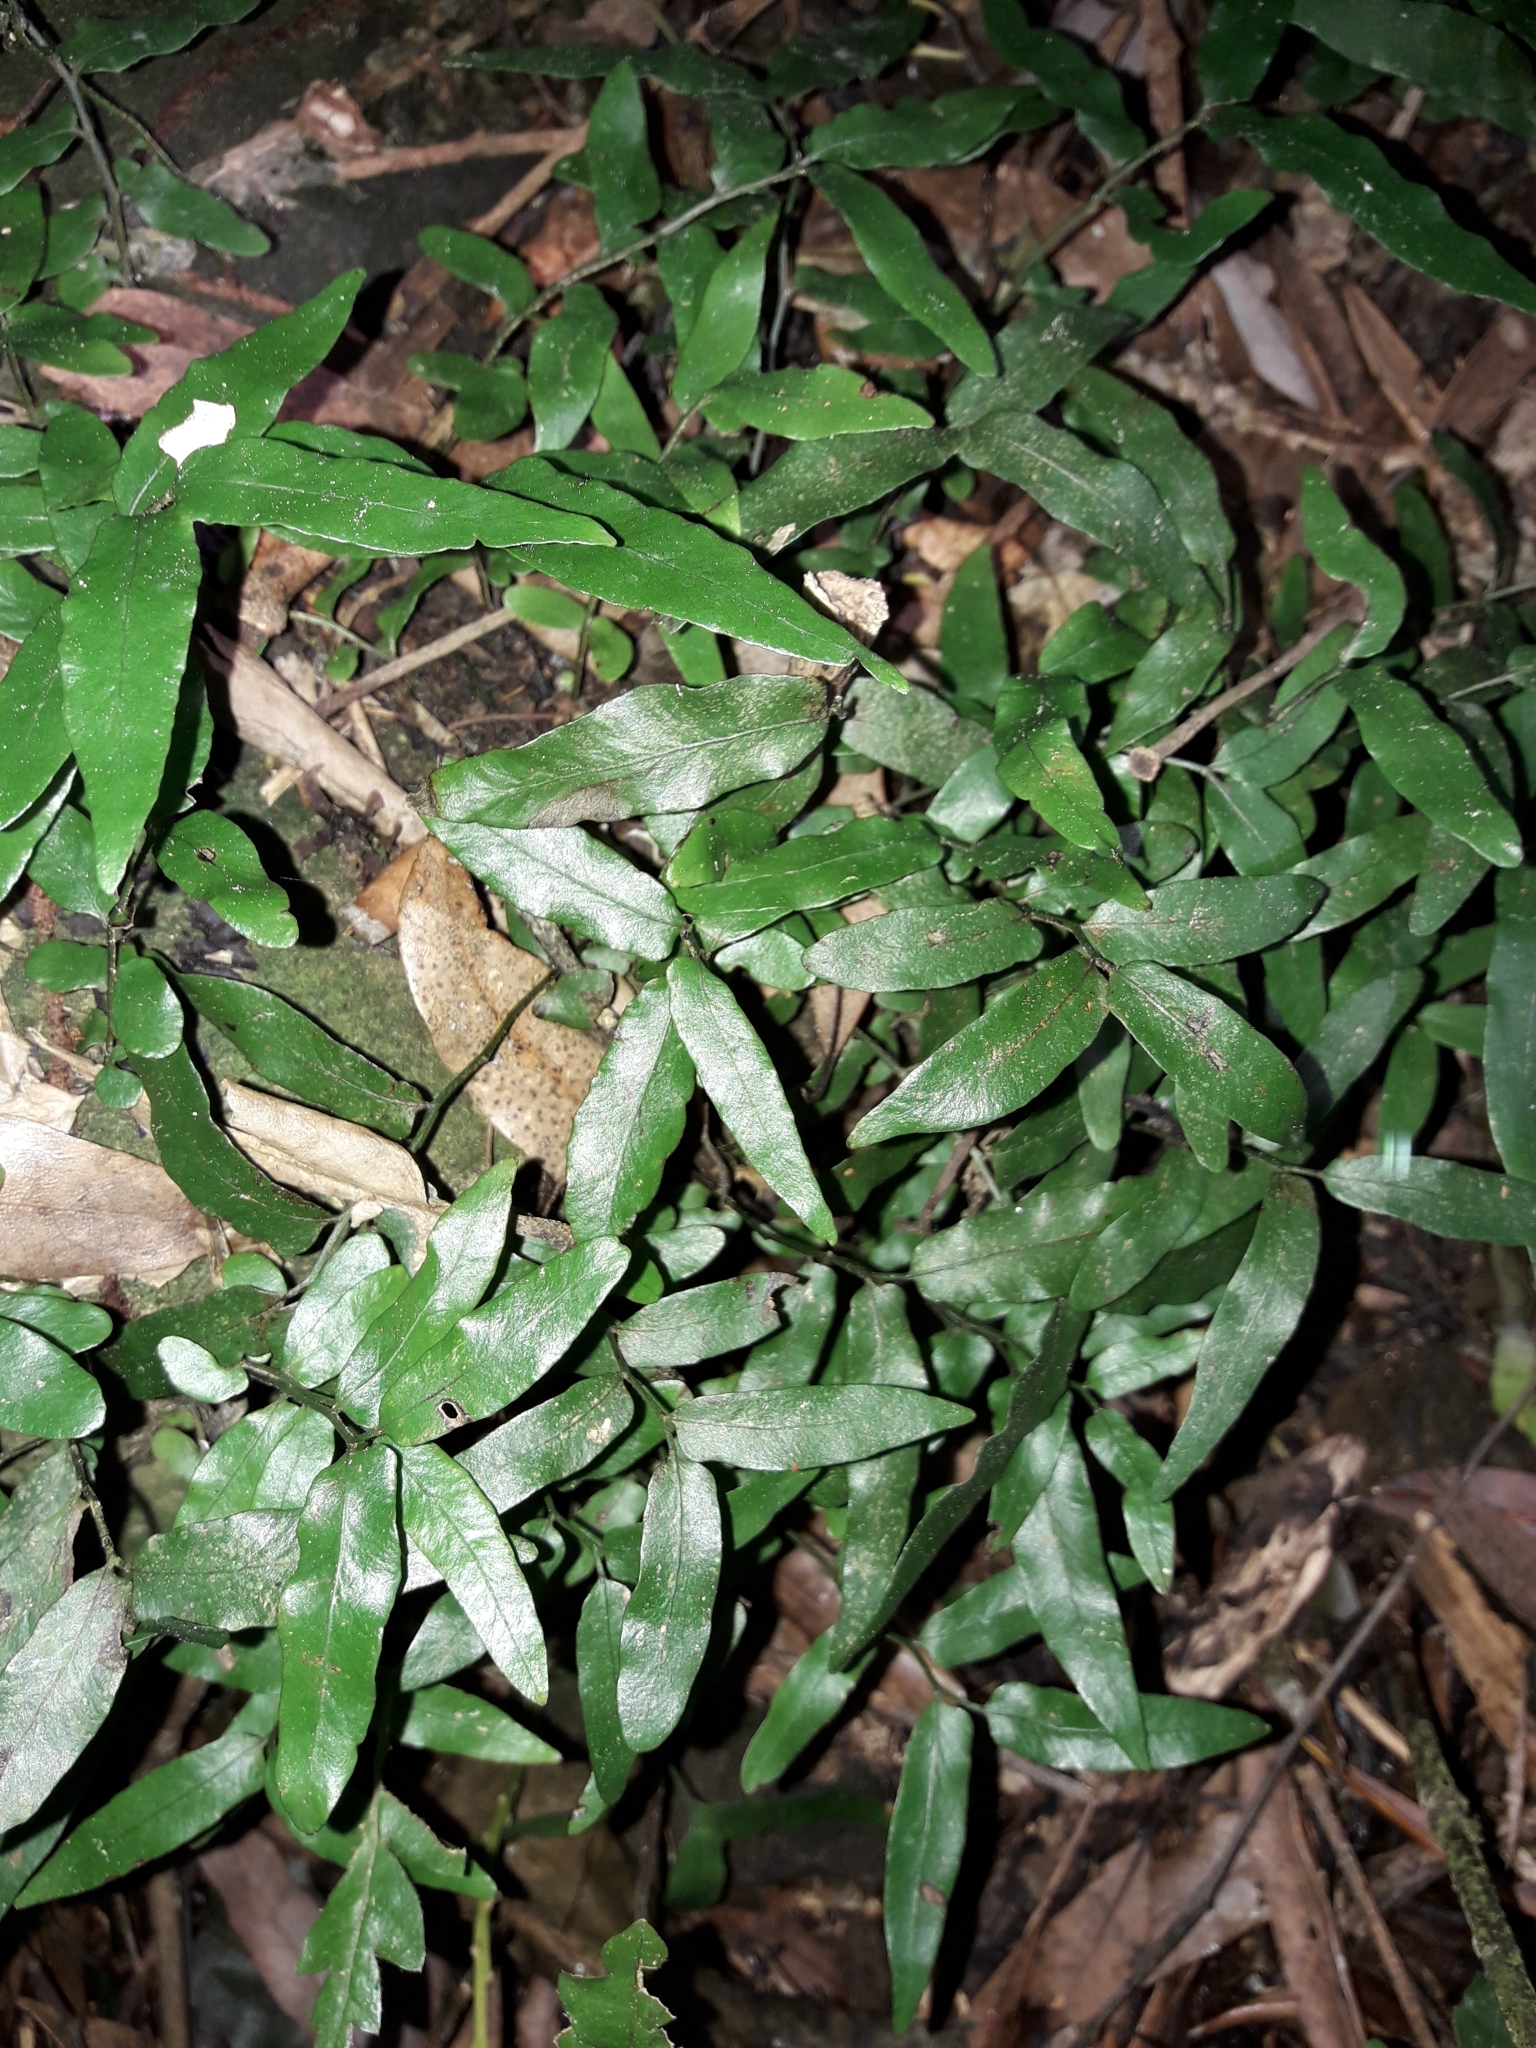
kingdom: Plantae
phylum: Tracheophyta
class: Polypodiopsida
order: Polypodiales
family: Tectariaceae
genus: Arthropteris
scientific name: Arthropteris tenella
